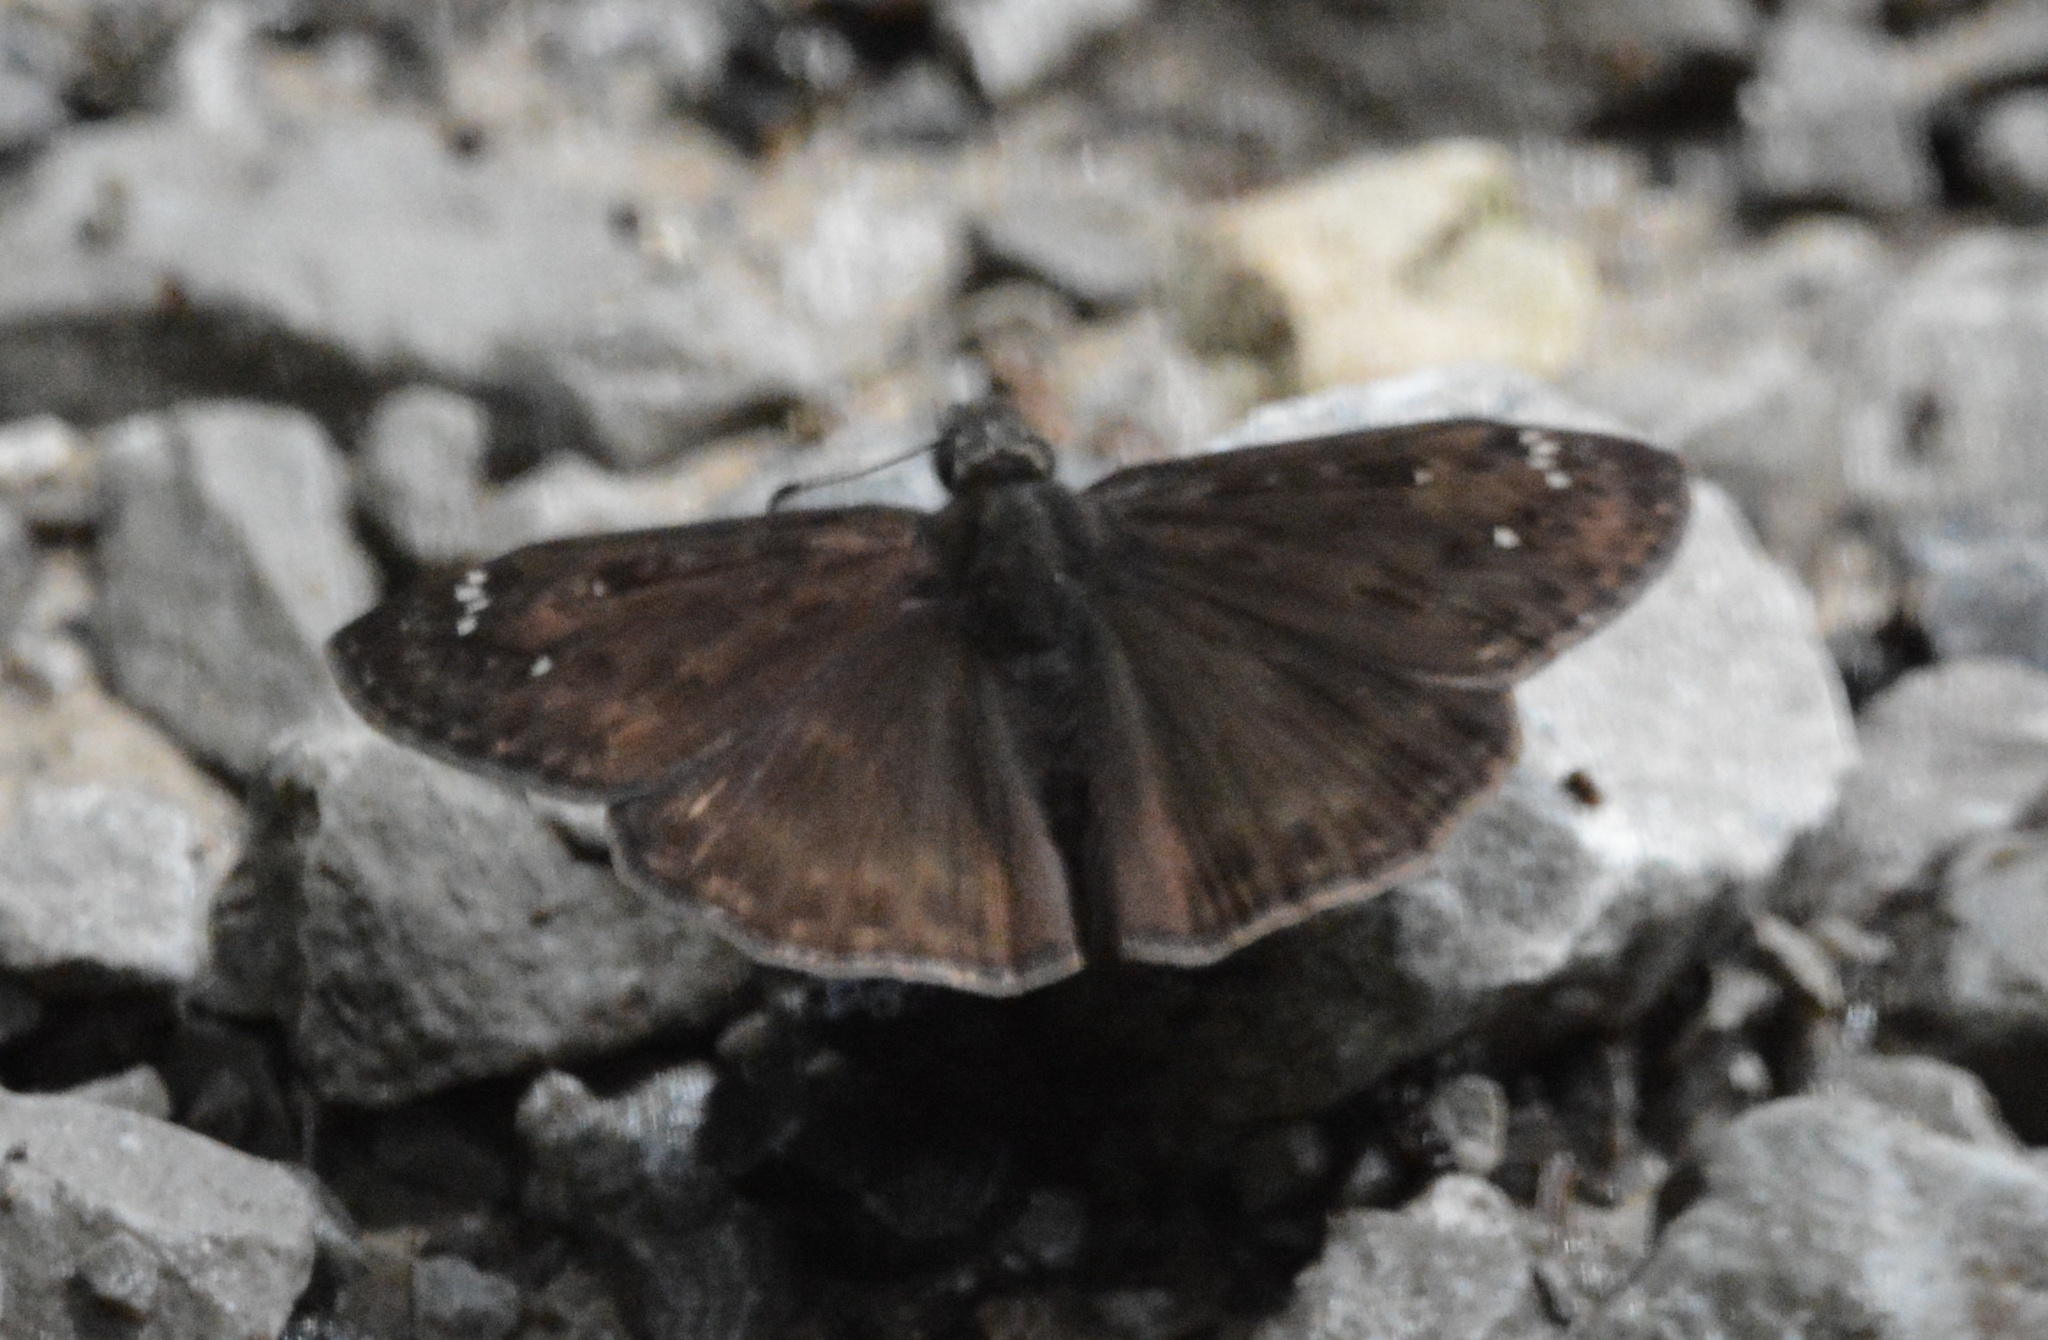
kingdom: Animalia
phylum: Arthropoda
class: Insecta
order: Lepidoptera
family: Hesperiidae
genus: Erynnis
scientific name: Erynnis horatius
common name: Horace's duskywing
